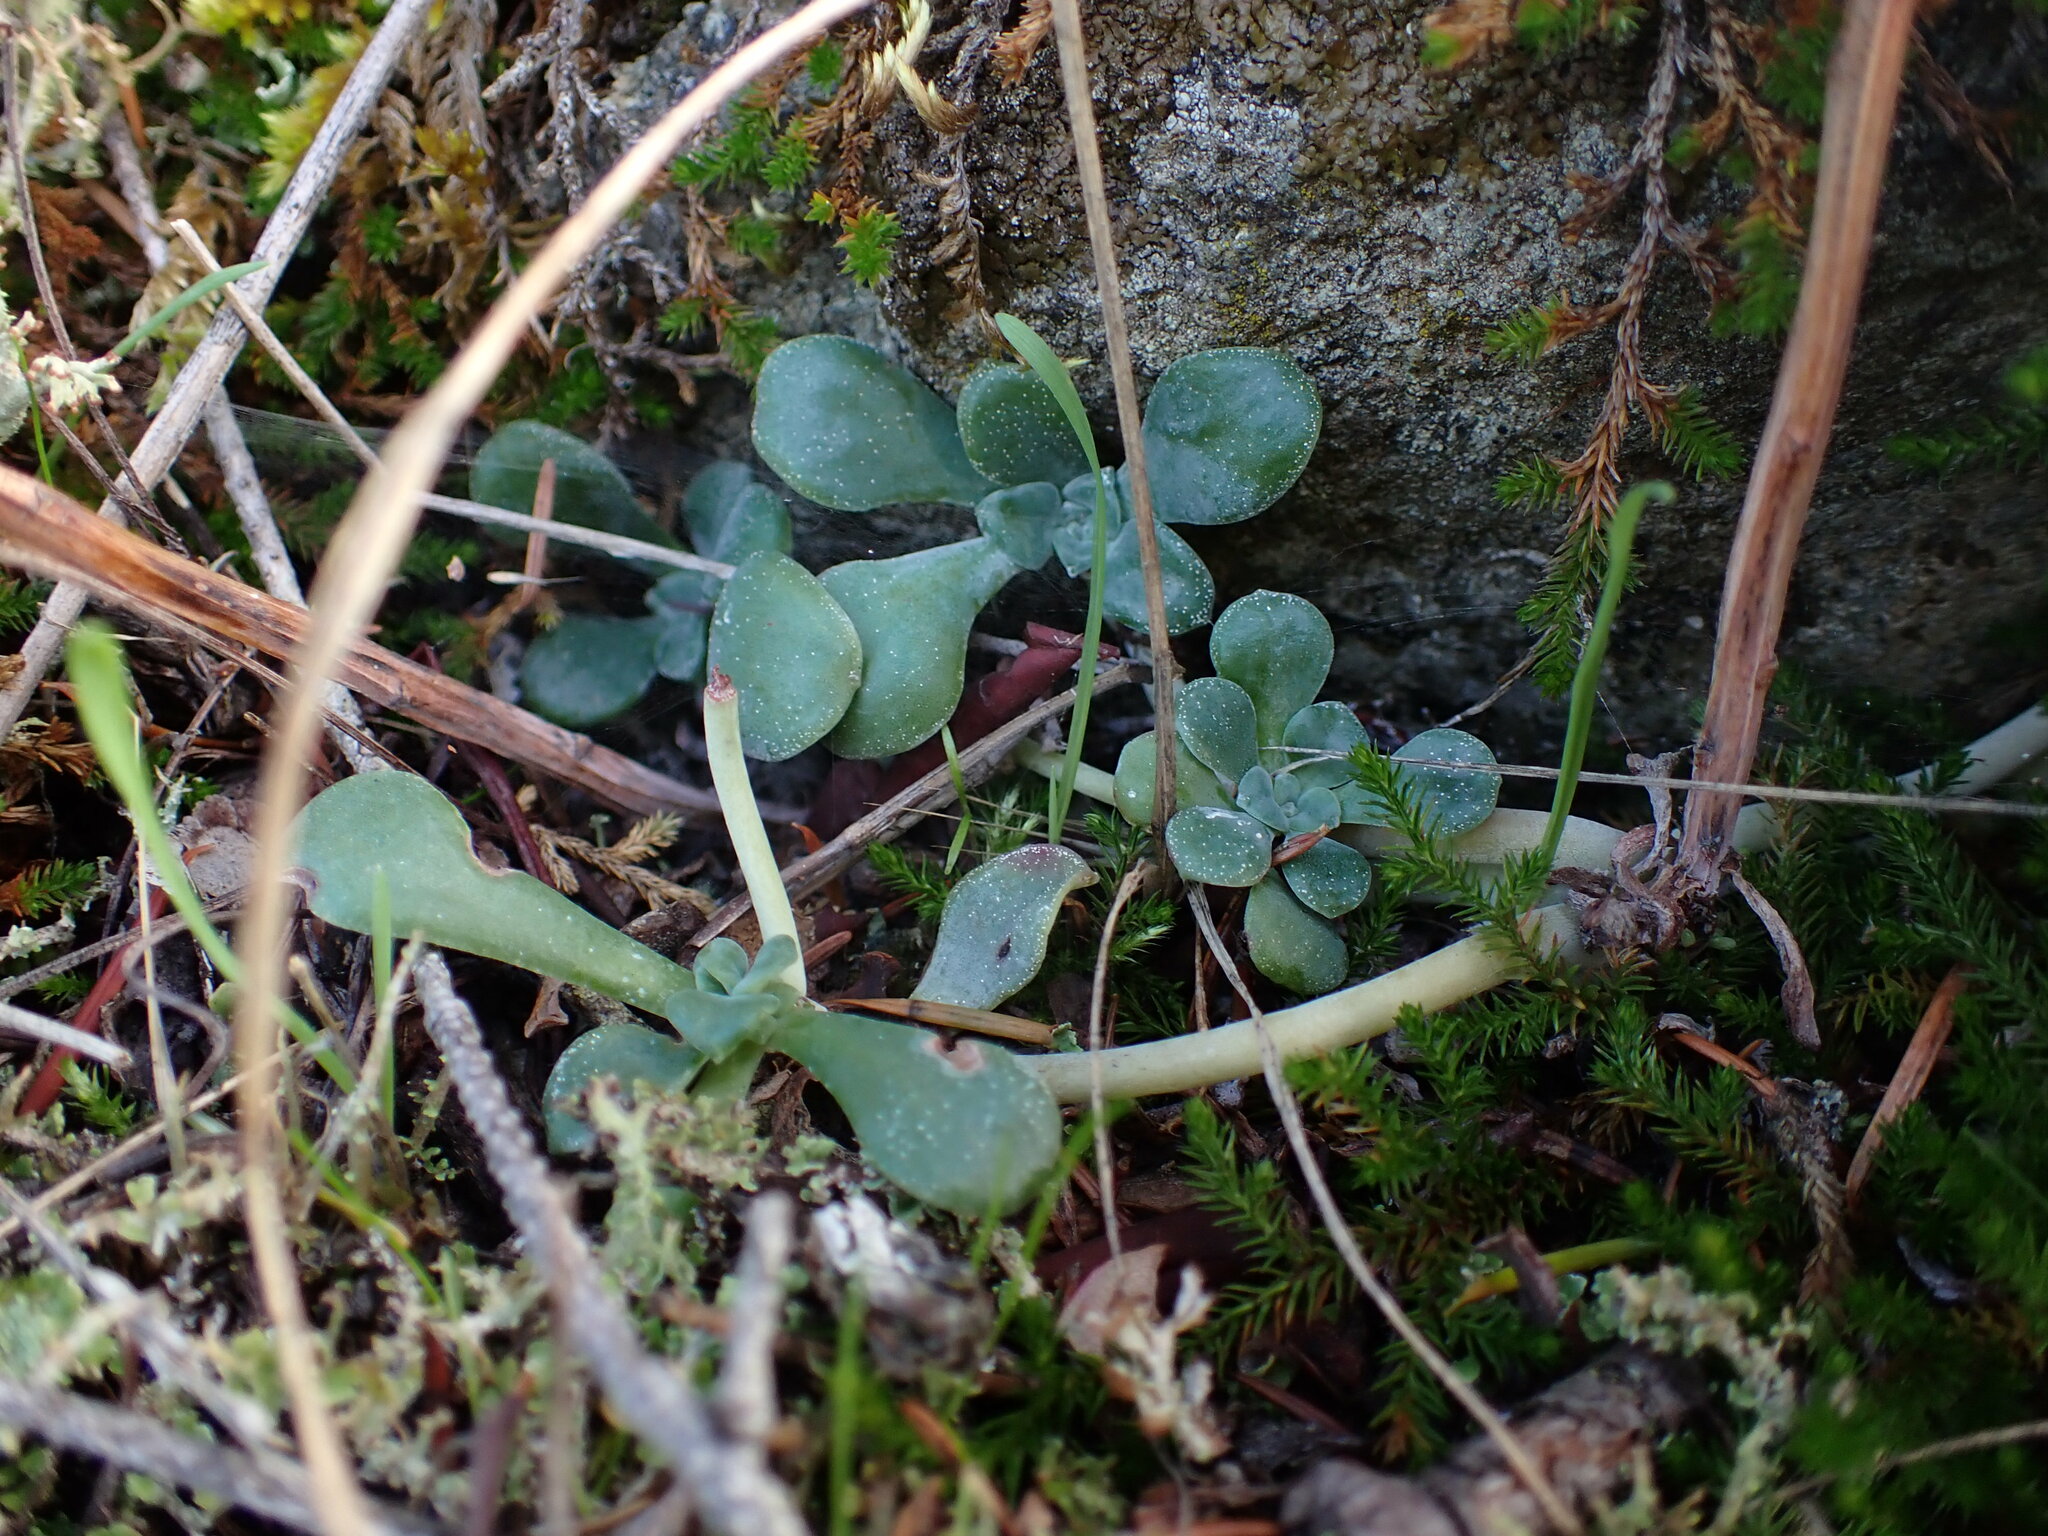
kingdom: Plantae
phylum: Tracheophyta
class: Magnoliopsida
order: Saxifragales
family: Crassulaceae
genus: Sedum
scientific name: Sedum spathulifolium
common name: Colorado stonecrop
